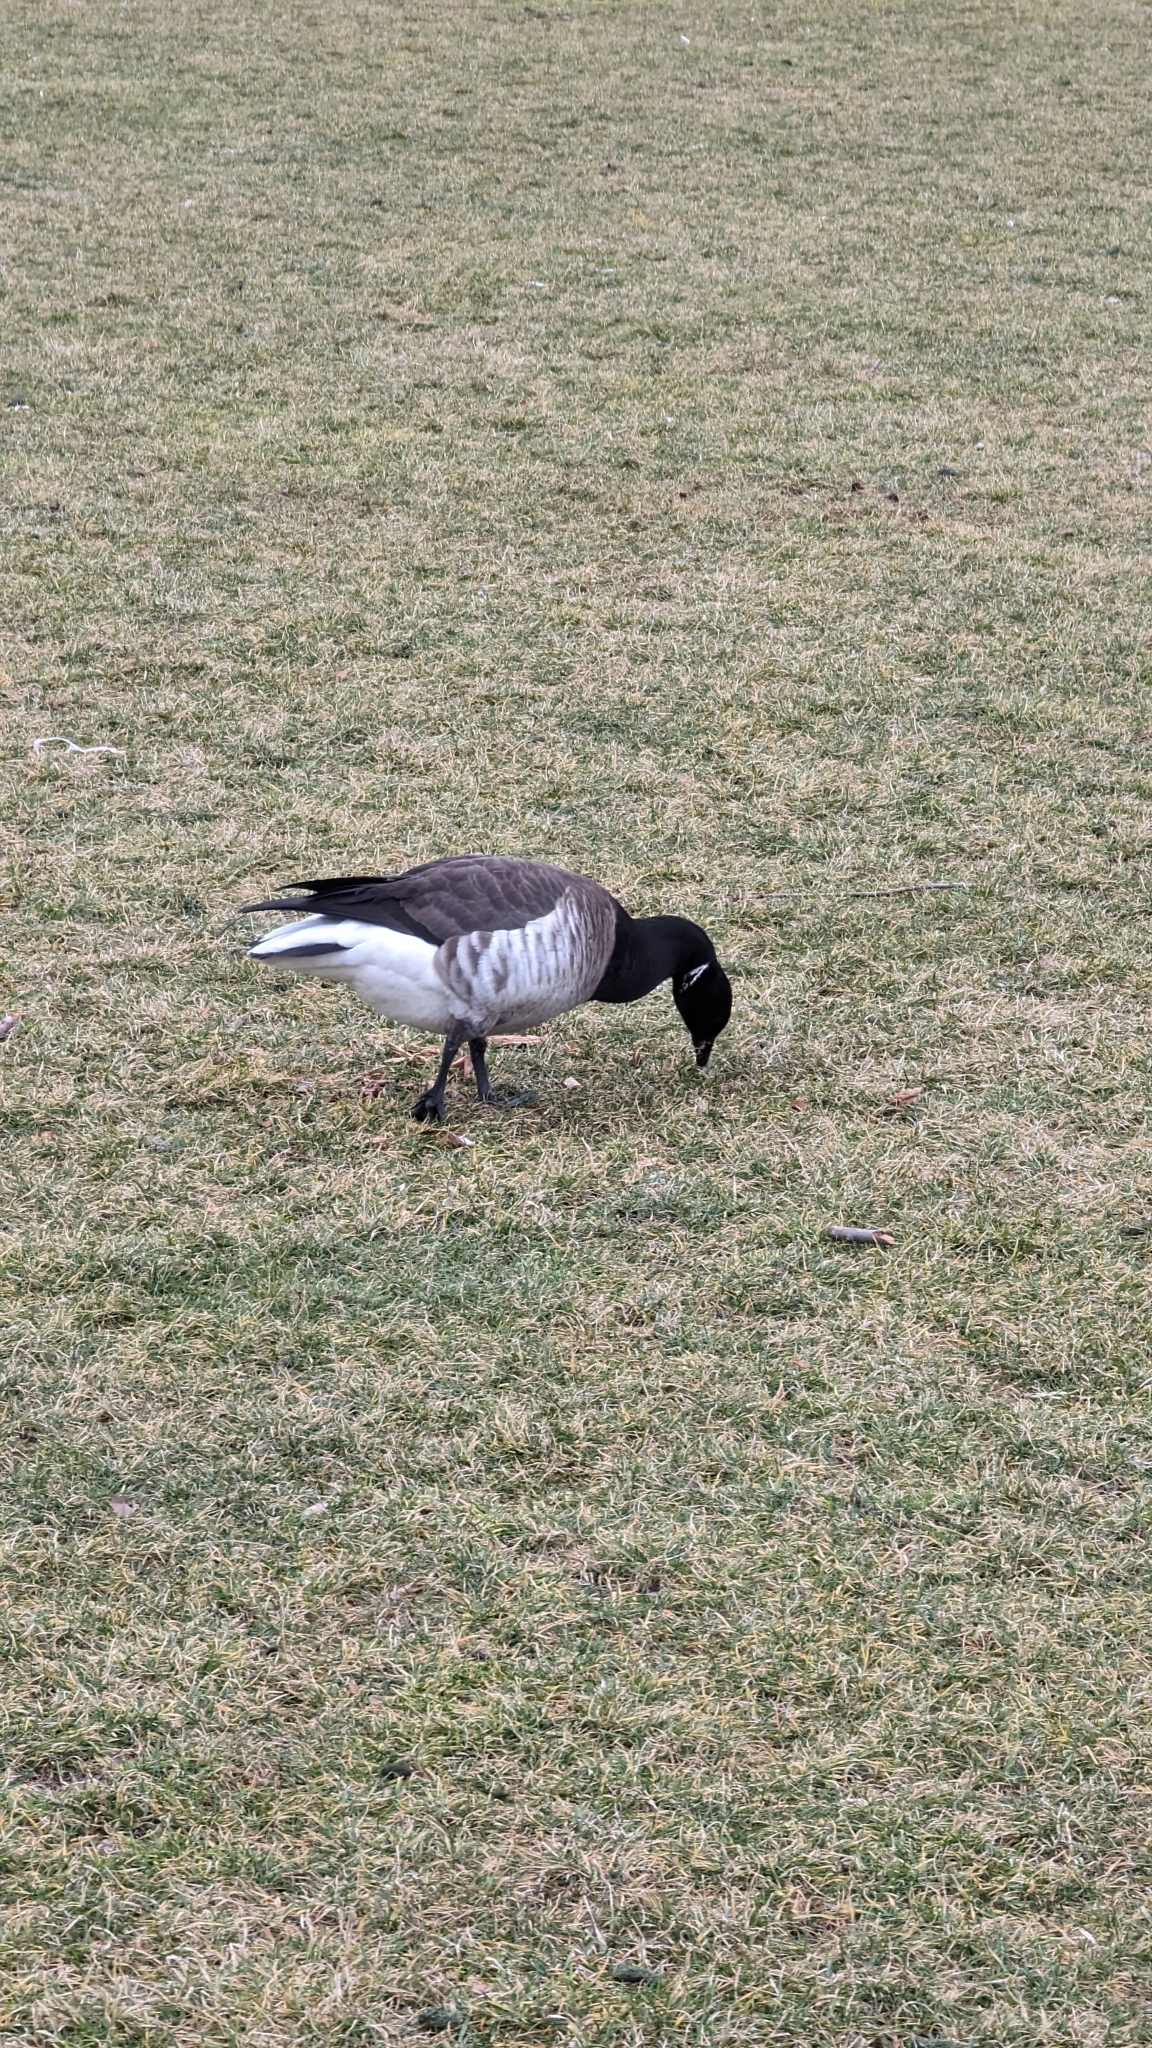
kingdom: Animalia
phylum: Chordata
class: Aves
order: Anseriformes
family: Anatidae
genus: Branta
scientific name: Branta bernicla
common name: Brant goose
